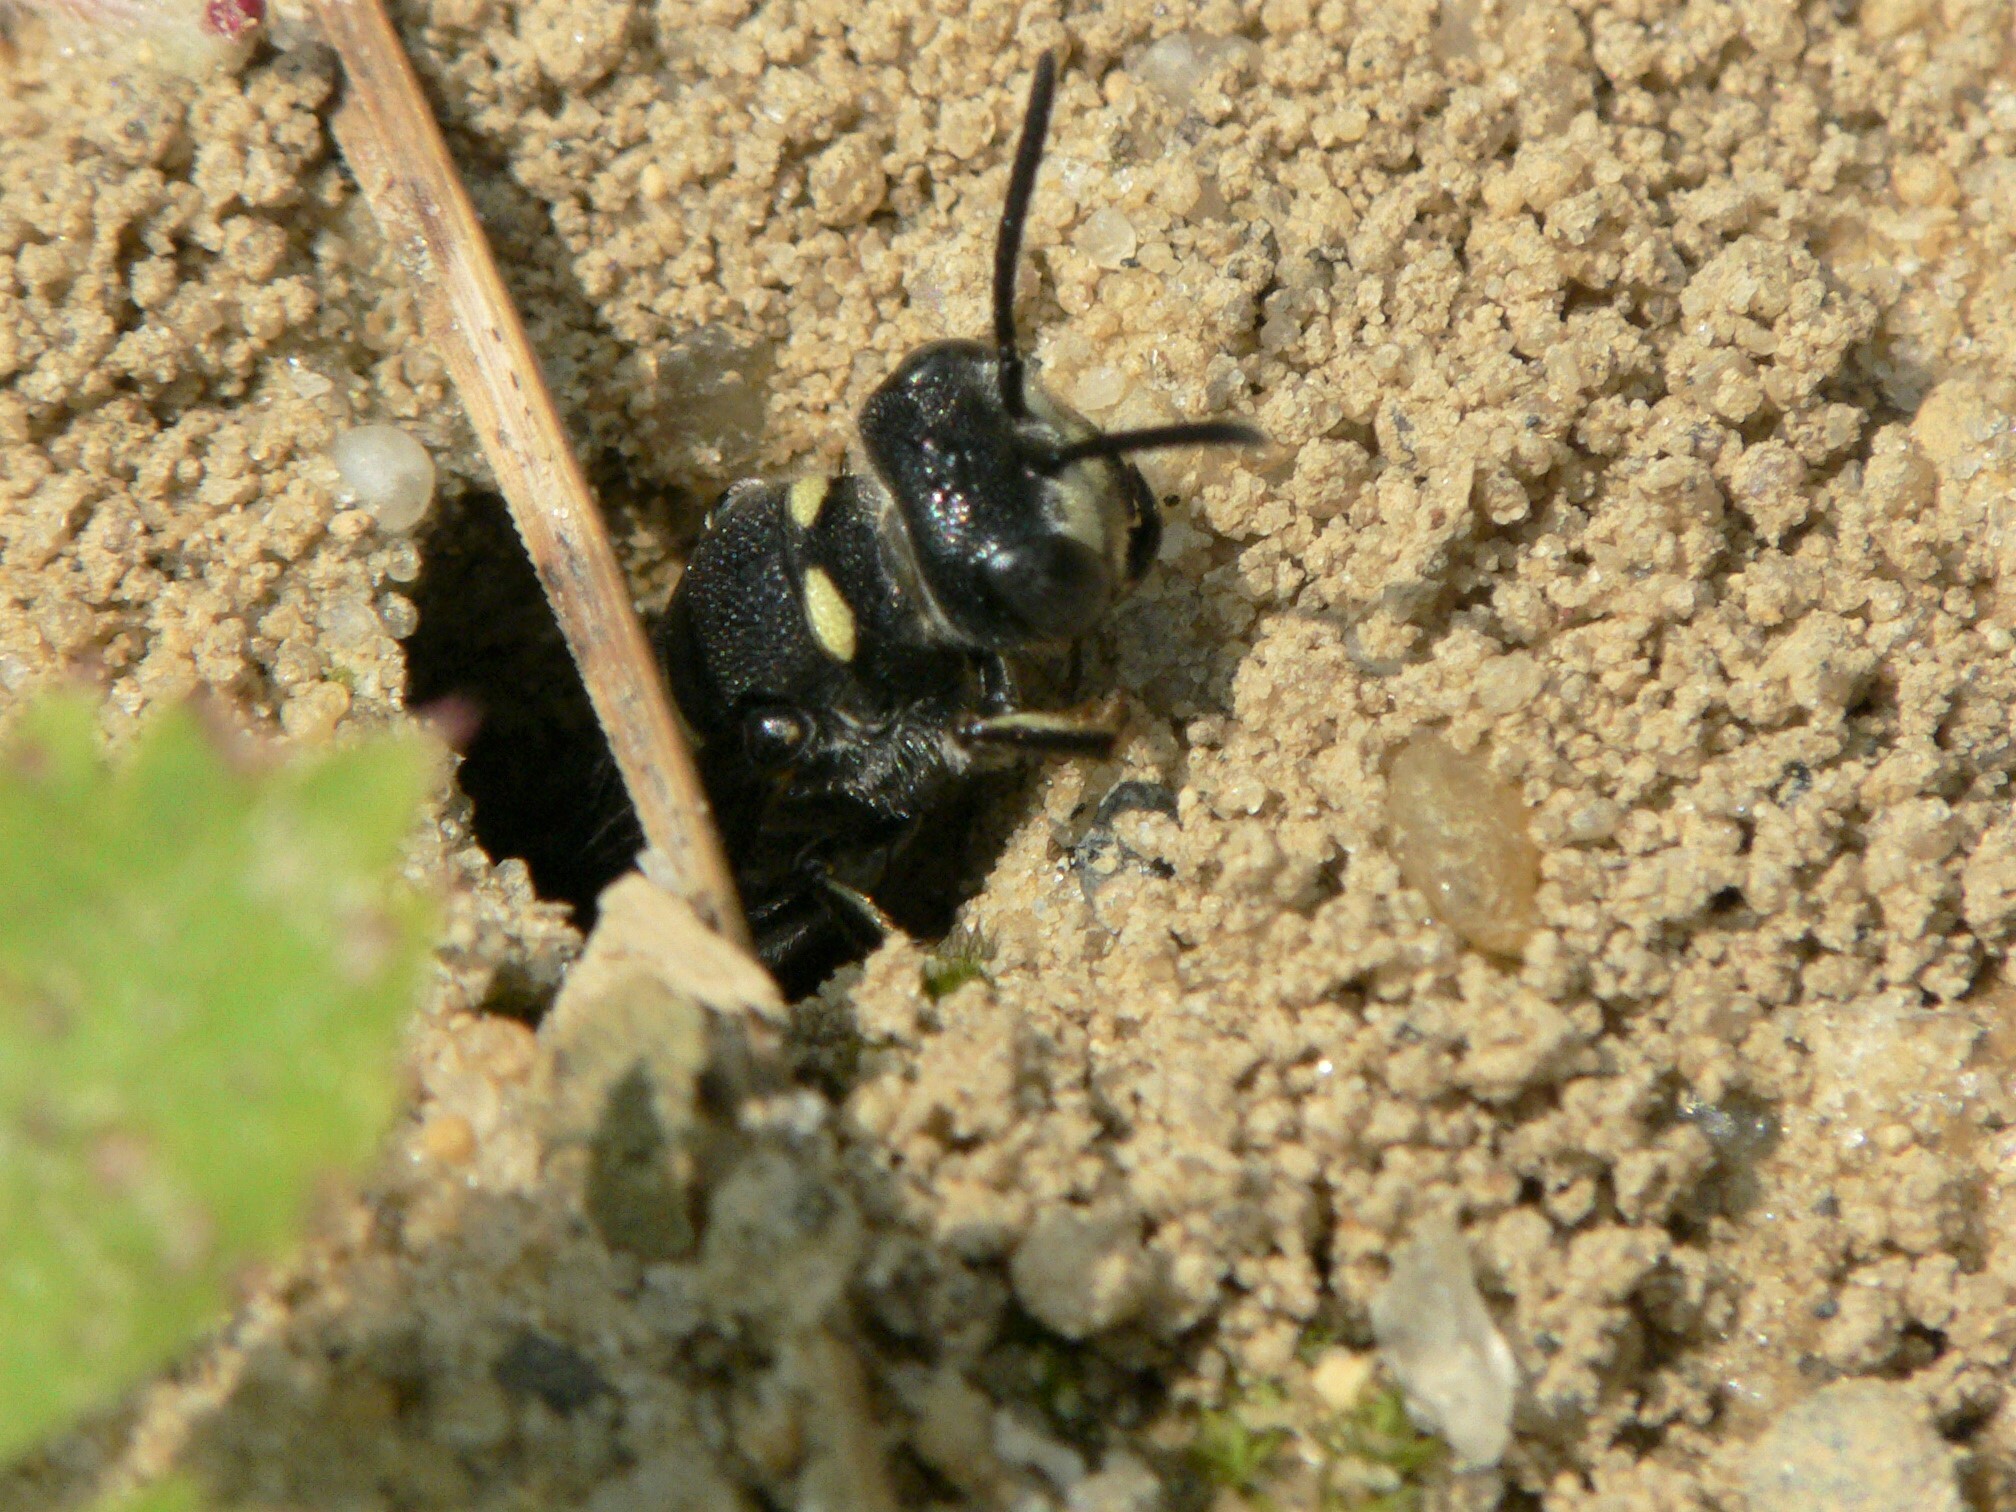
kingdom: Animalia
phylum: Arthropoda
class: Insecta
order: Hymenoptera
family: Crabronidae
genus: Cerceris
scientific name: Cerceris fumipennis
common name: Smokey-winged beetle bandit wasp
